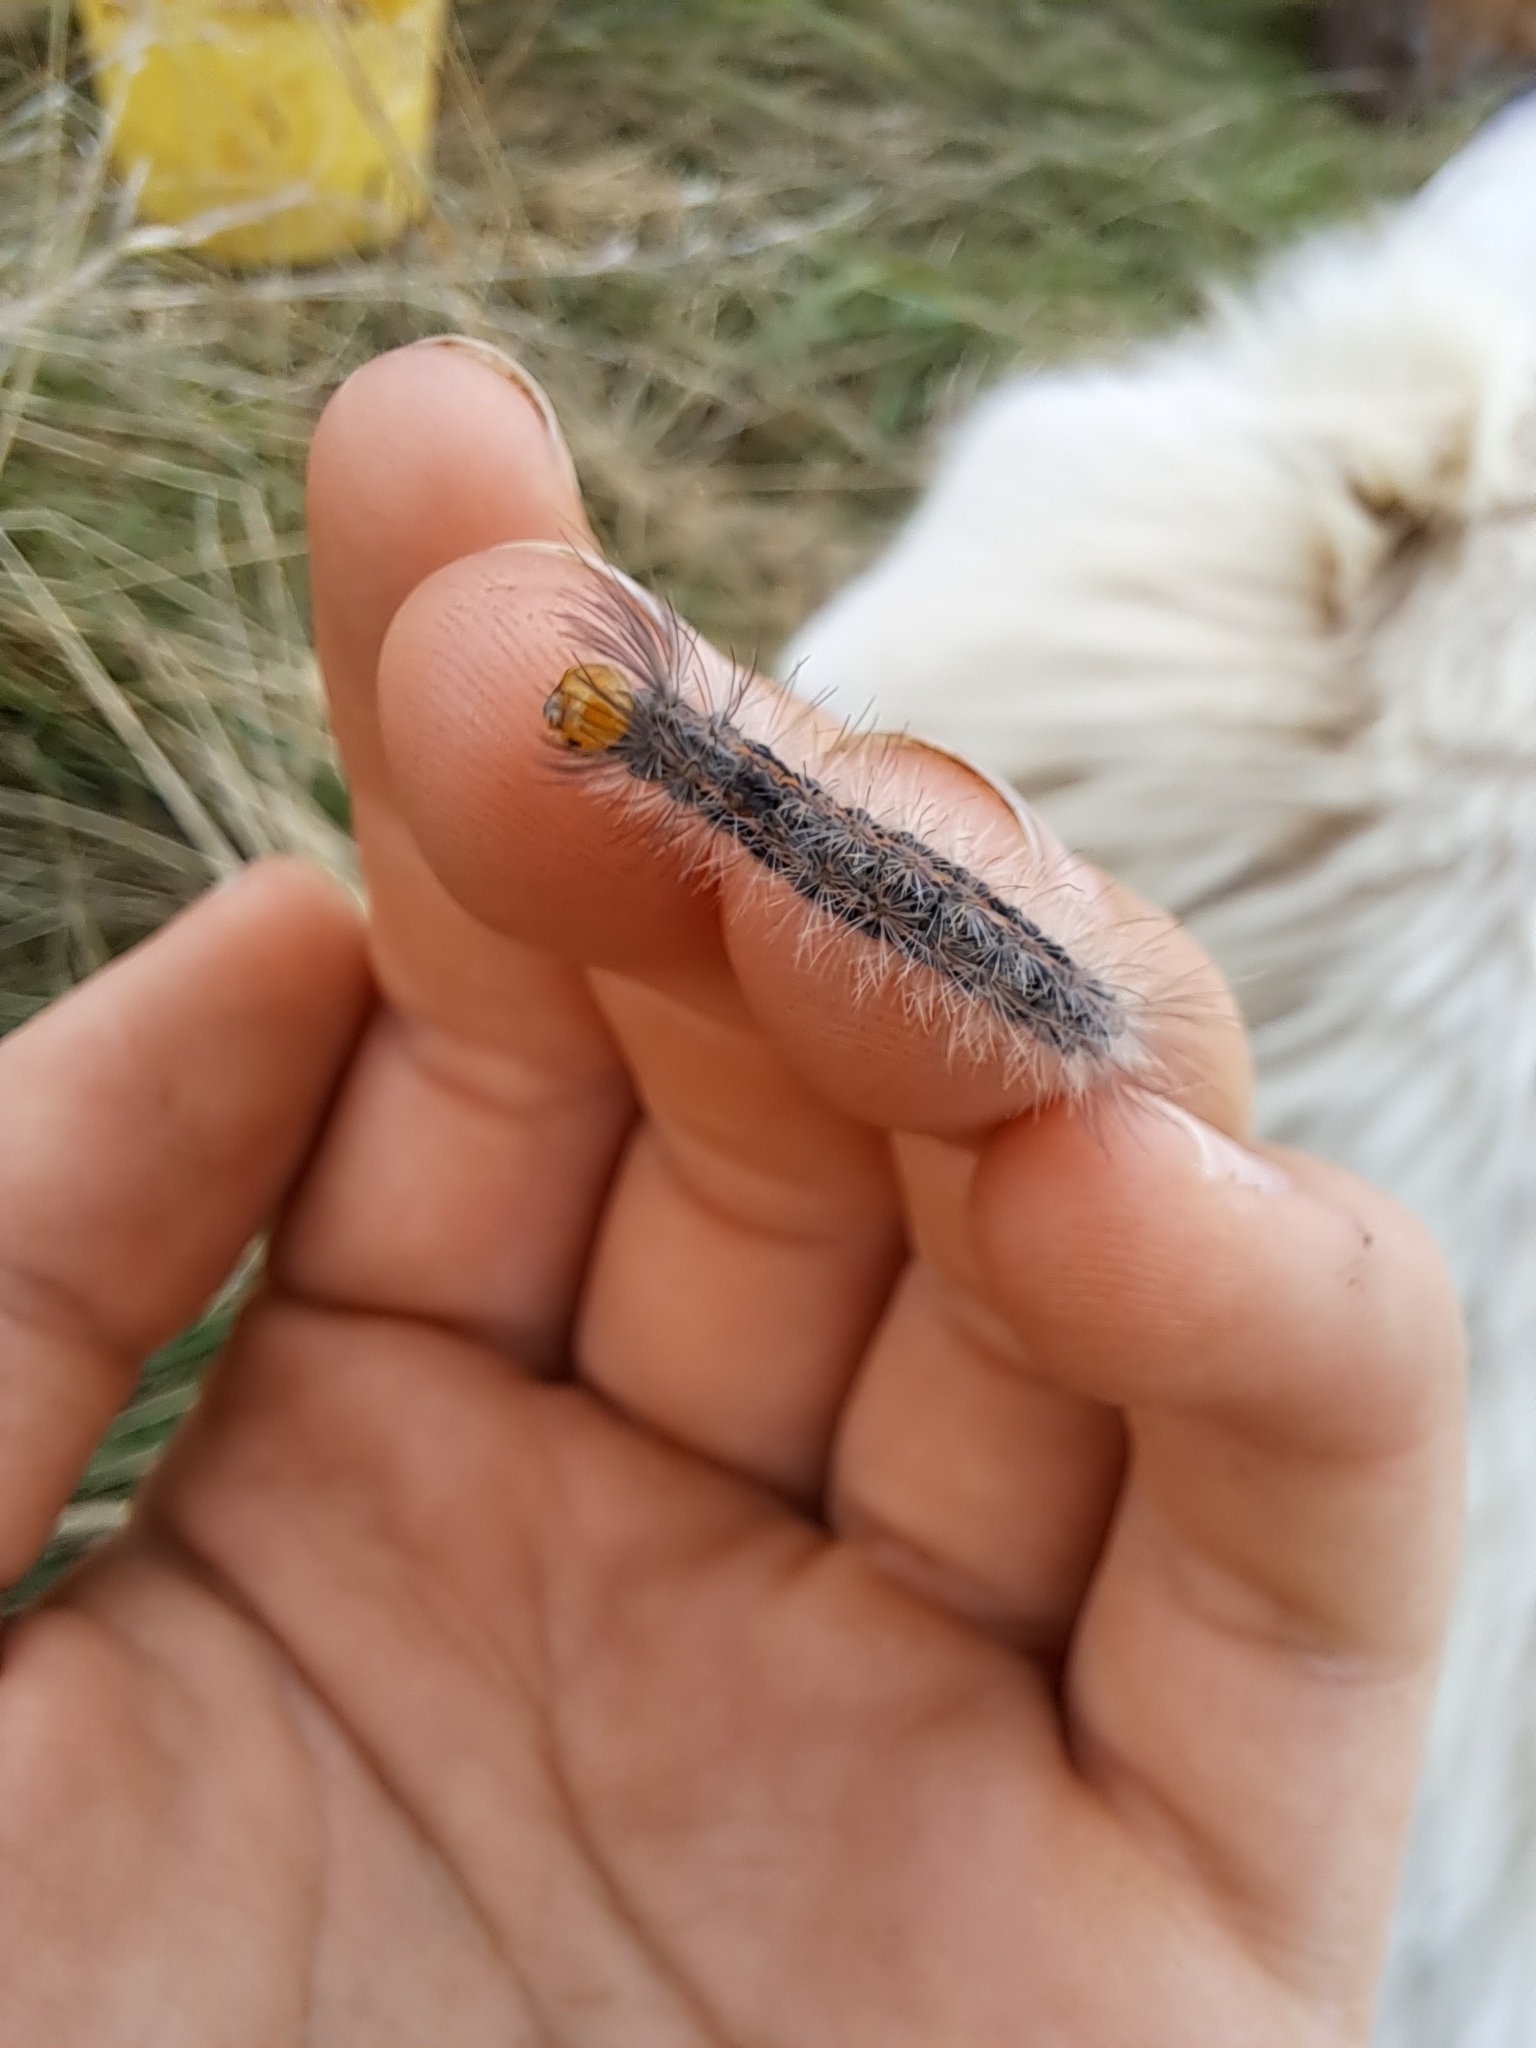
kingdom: Animalia
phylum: Arthropoda
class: Insecta
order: Lepidoptera
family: Erebidae
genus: Cisseps
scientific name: Cisseps fulvicollis
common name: Yellow-collared scape moth
